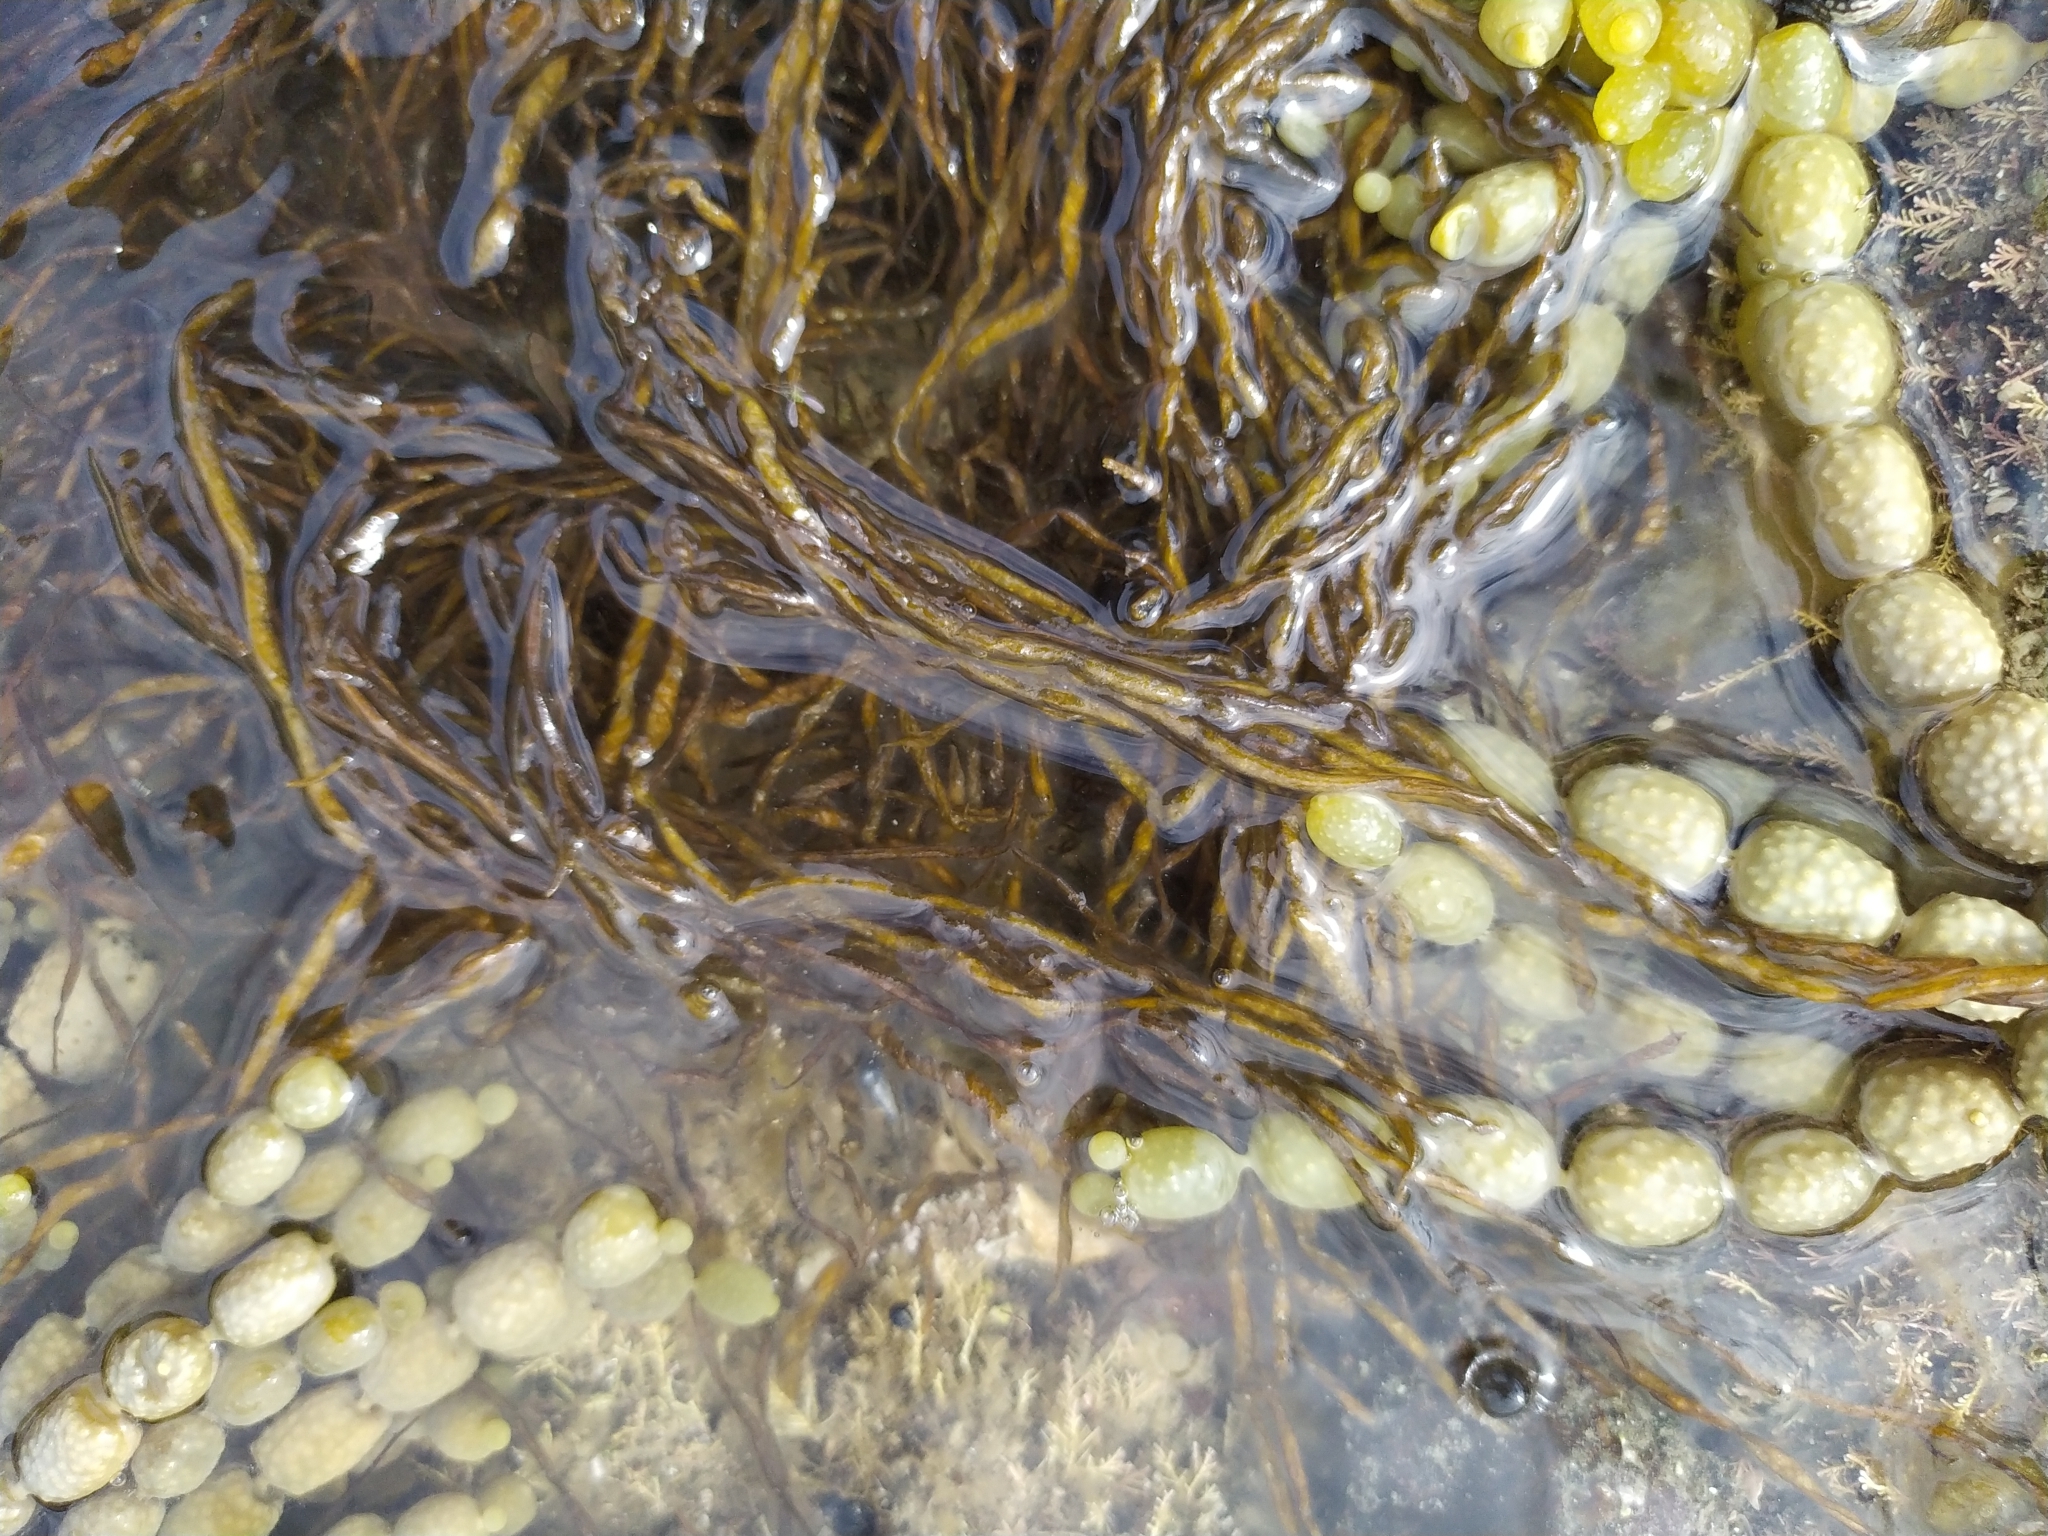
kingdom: Chromista
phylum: Ochrophyta
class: Phaeophyceae
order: Scytosiphonales
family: Scytosiphonaceae
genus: Scytosiphon
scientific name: Scytosiphon lomentaria
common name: Beanweed
